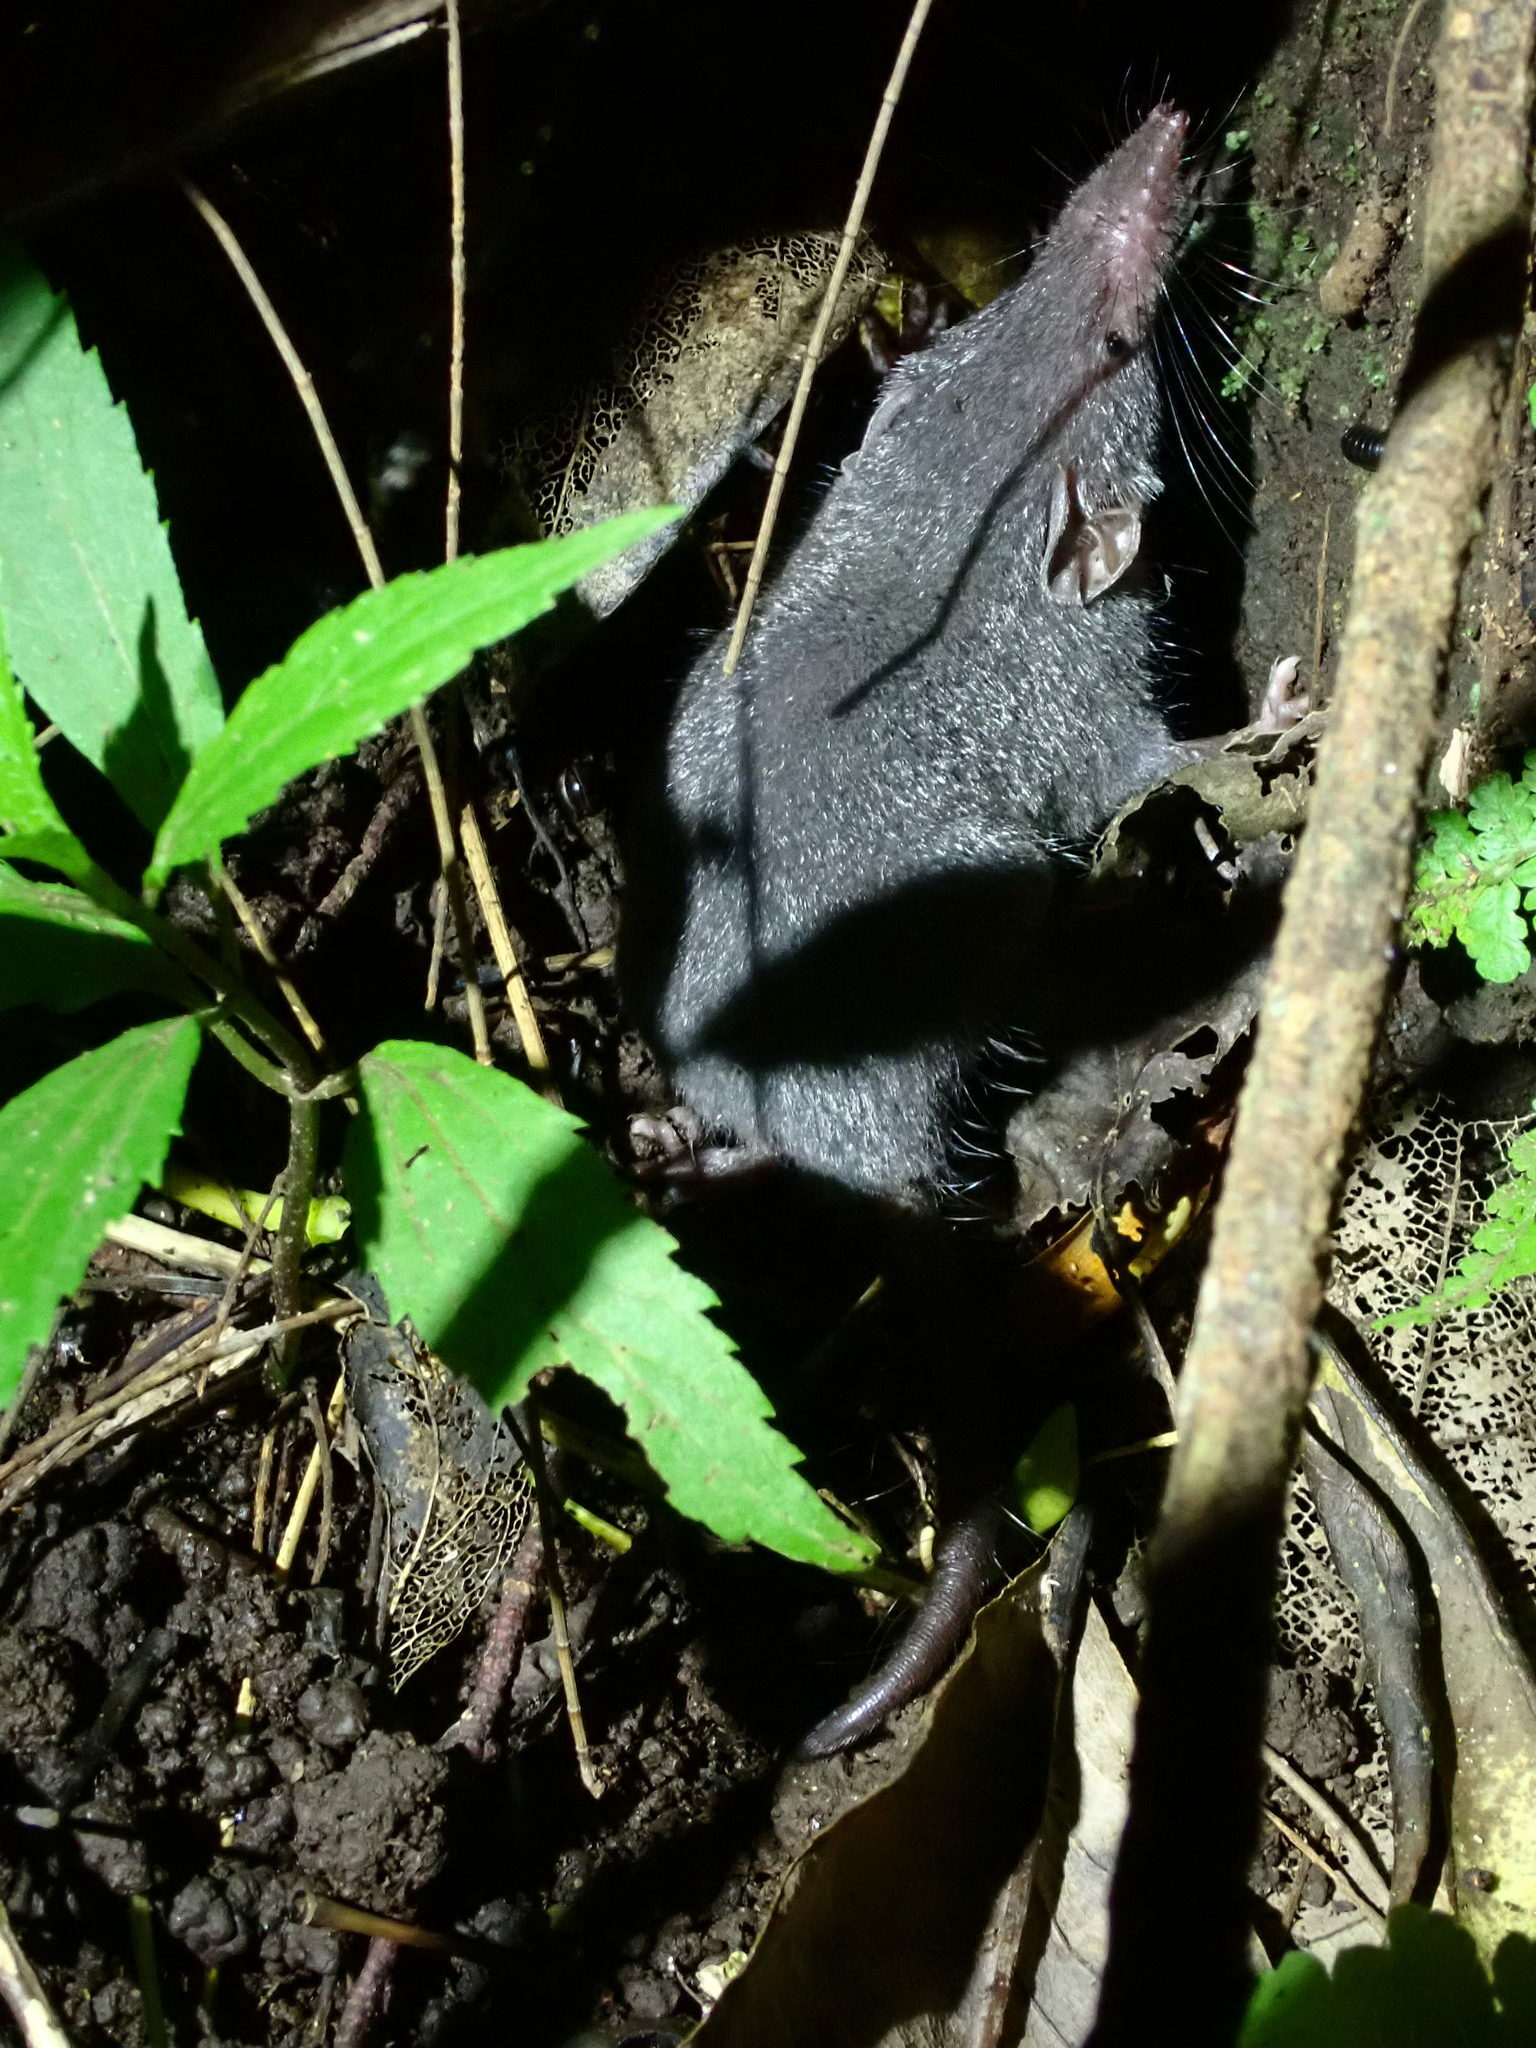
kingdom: Animalia
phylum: Chordata
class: Mammalia
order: Soricomorpha
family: Soricidae
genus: Suncus
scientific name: Suncus murinus
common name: Asian house shrew
